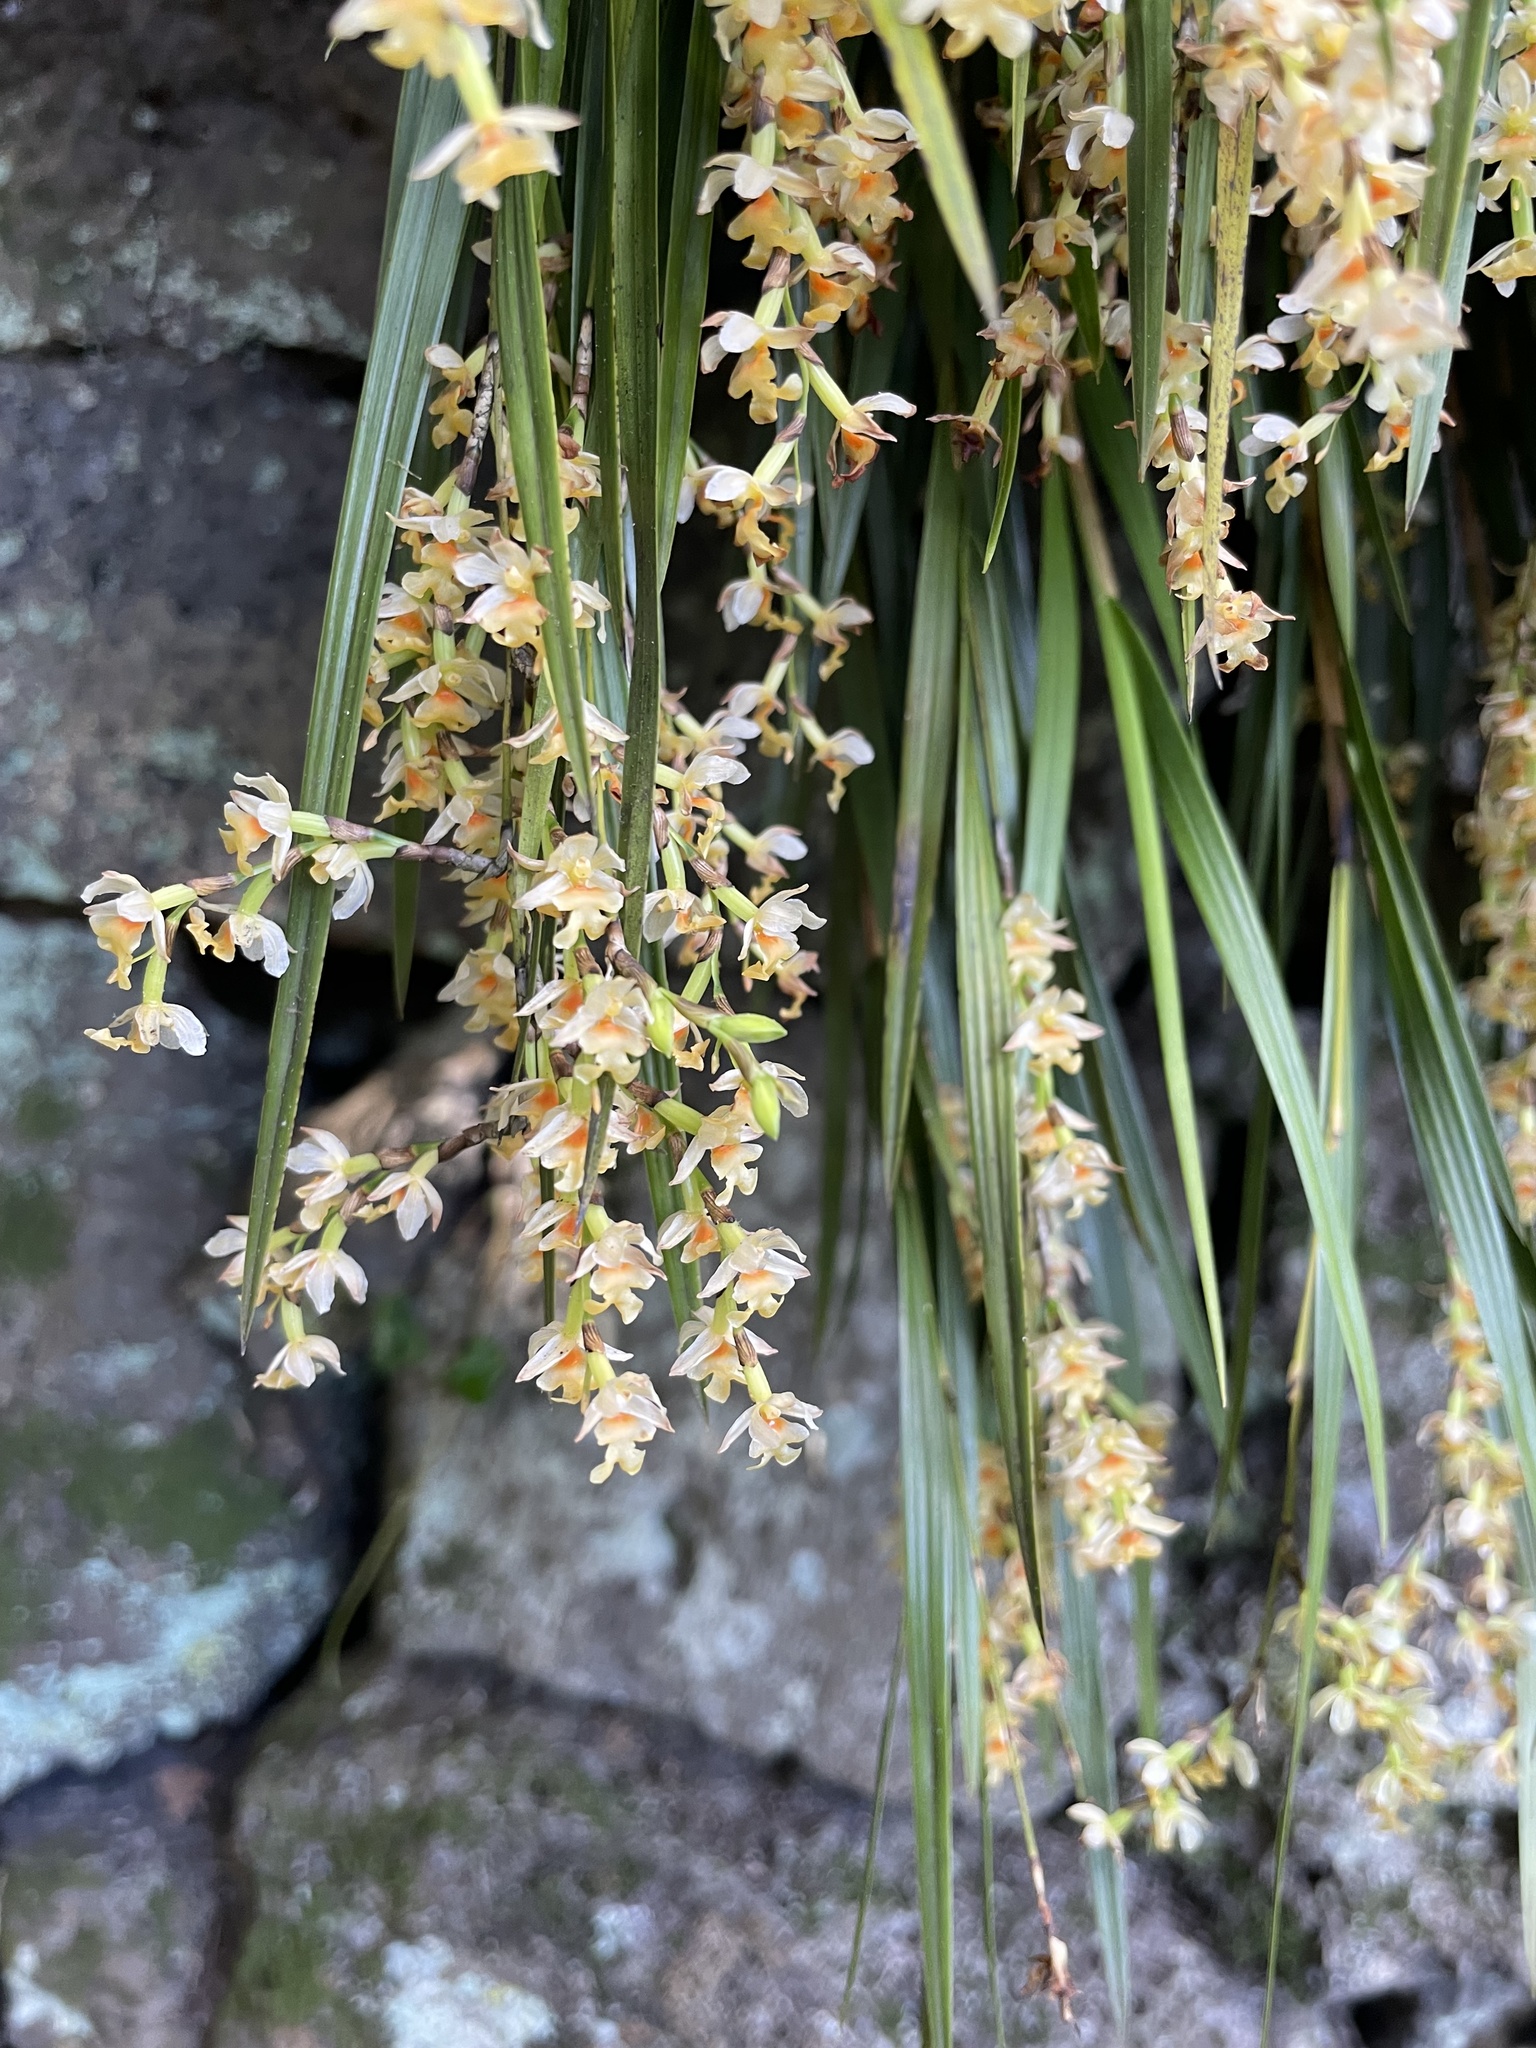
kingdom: Plantae
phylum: Tracheophyta
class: Liliopsida
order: Asparagales
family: Orchidaceae
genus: Earina
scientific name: Earina mucronata
